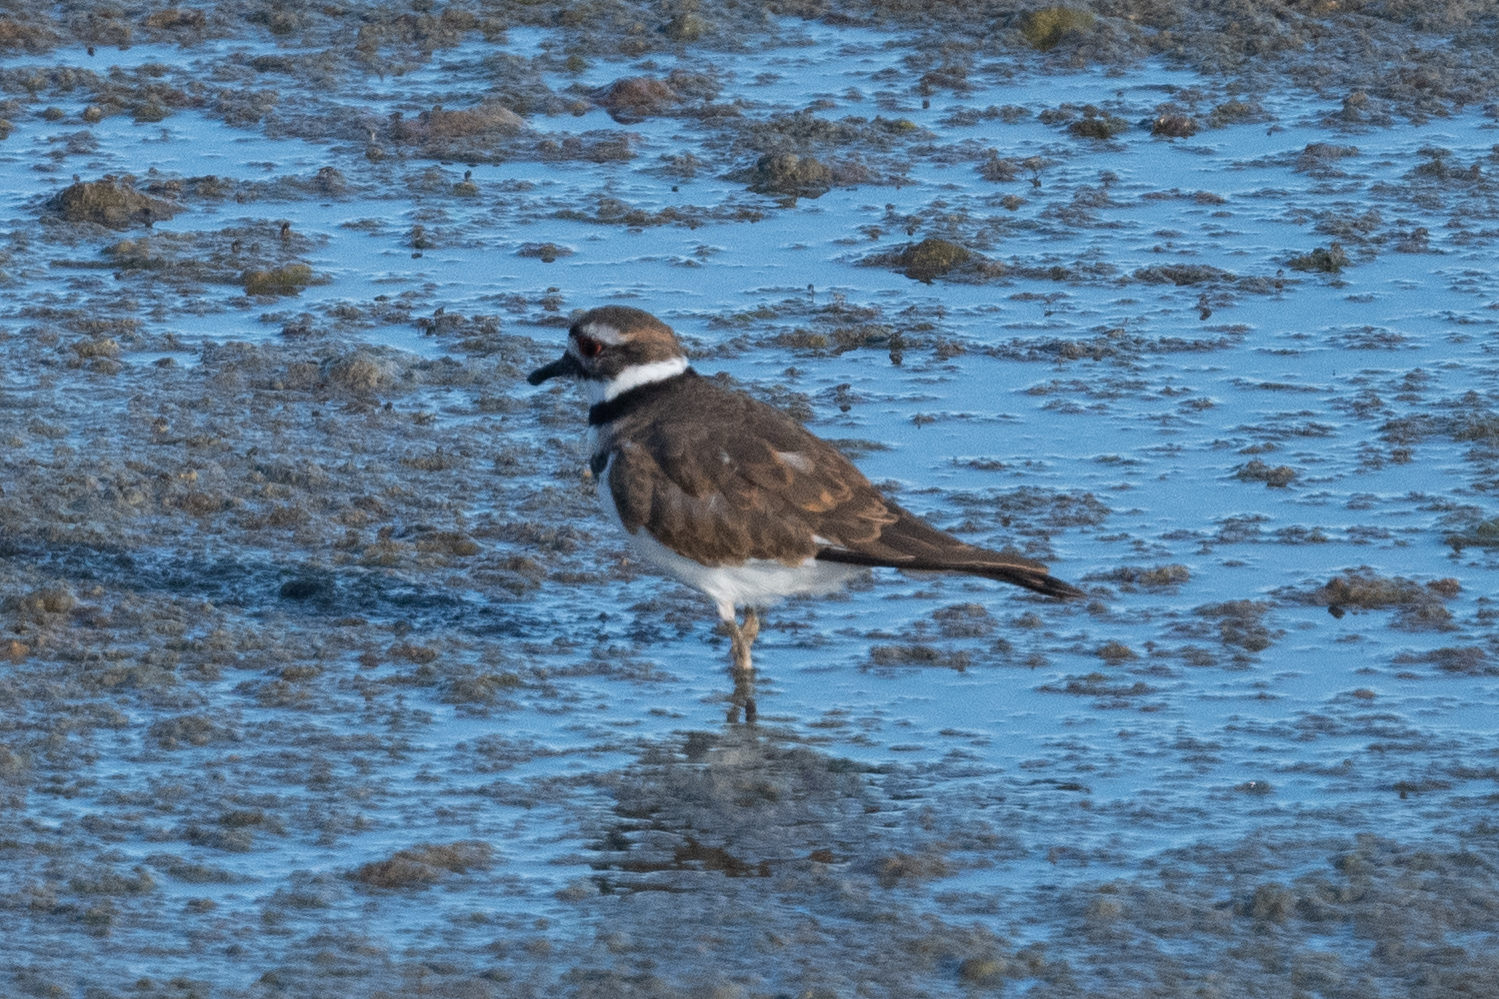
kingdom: Animalia
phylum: Chordata
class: Aves
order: Charadriiformes
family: Charadriidae
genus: Charadrius
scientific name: Charadrius vociferus
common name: Killdeer
